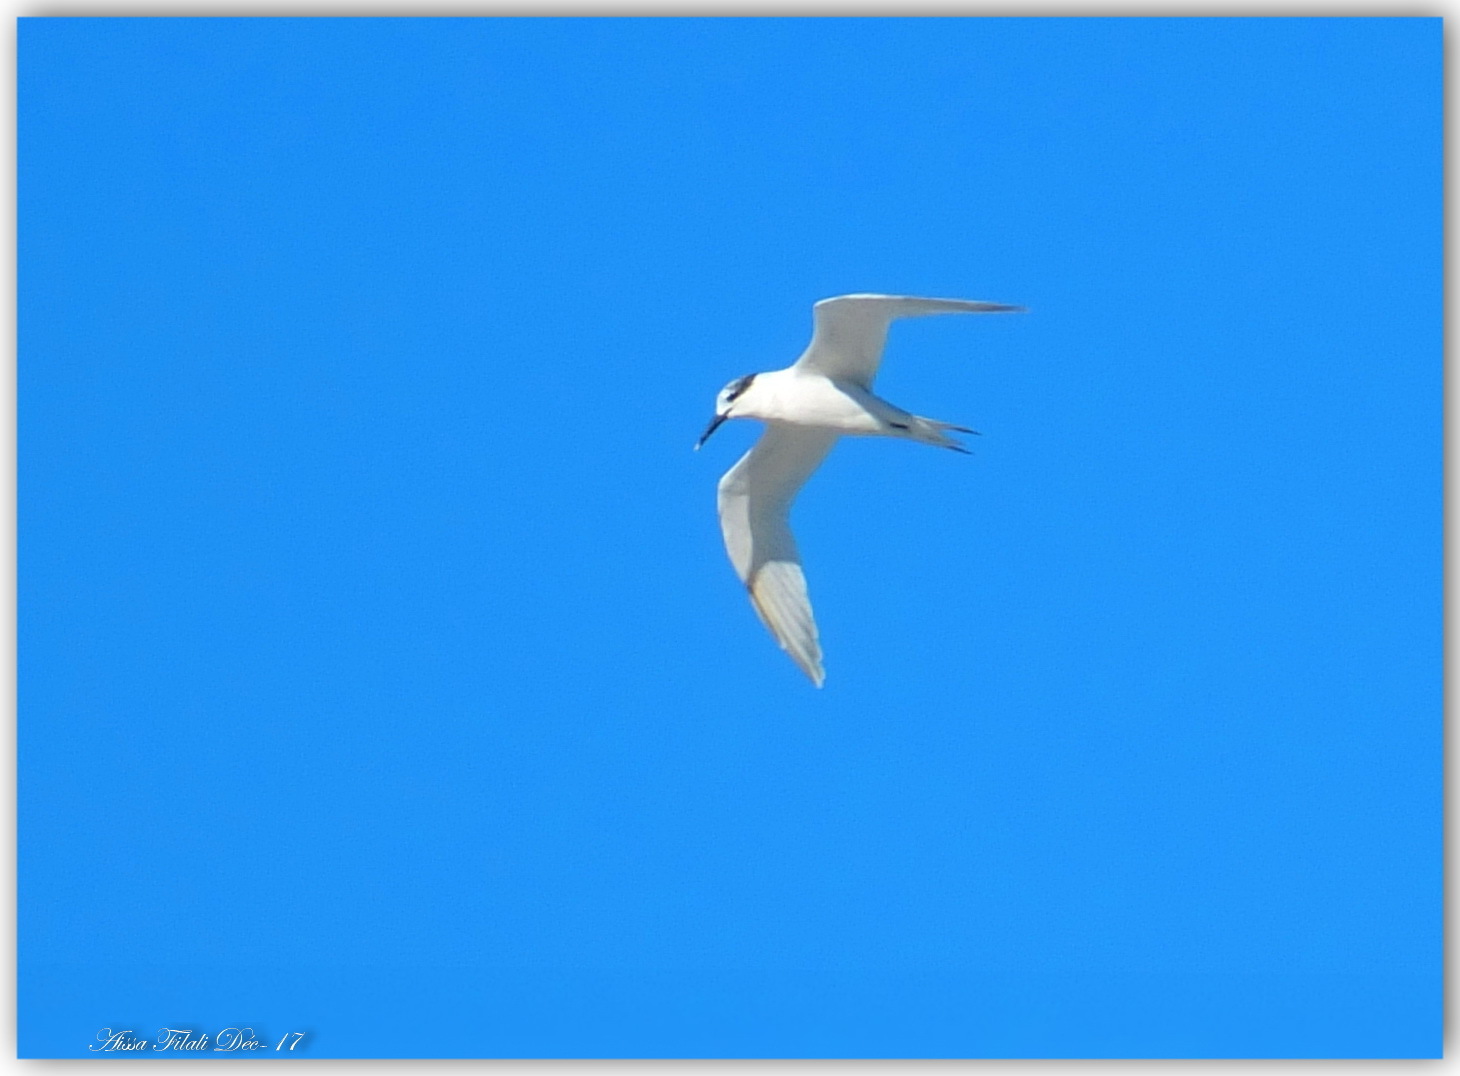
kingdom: Animalia
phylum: Chordata
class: Aves
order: Charadriiformes
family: Laridae
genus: Thalasseus
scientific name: Thalasseus sandvicensis
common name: Sandwich tern
